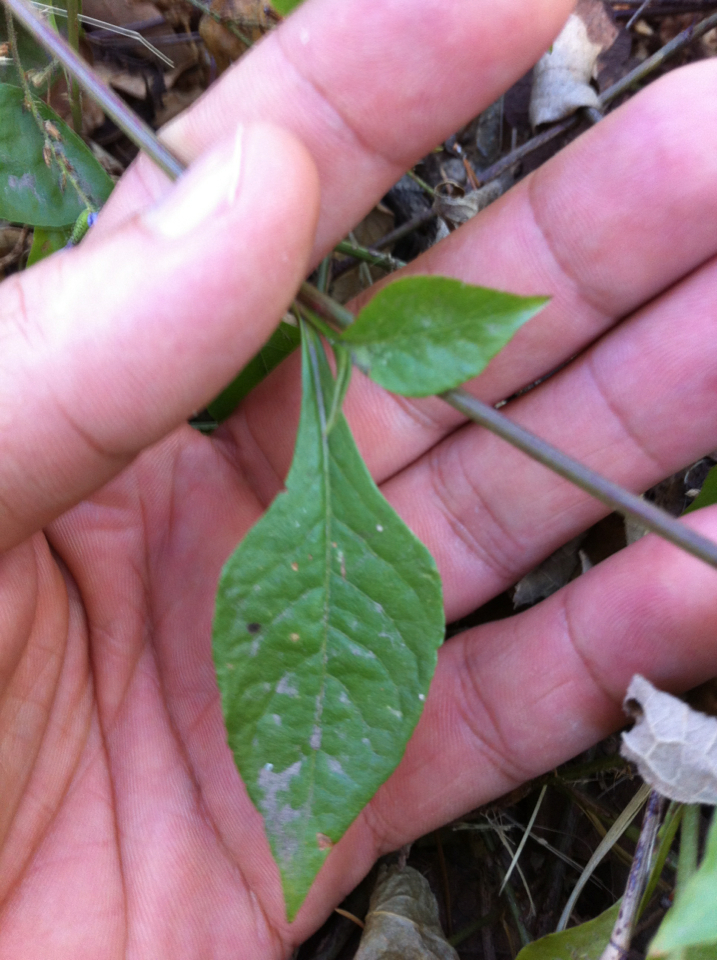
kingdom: Plantae
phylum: Tracheophyta
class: Magnoliopsida
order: Caryophyllales
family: Plumbaginaceae
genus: Plumbago
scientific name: Plumbago pulchella
